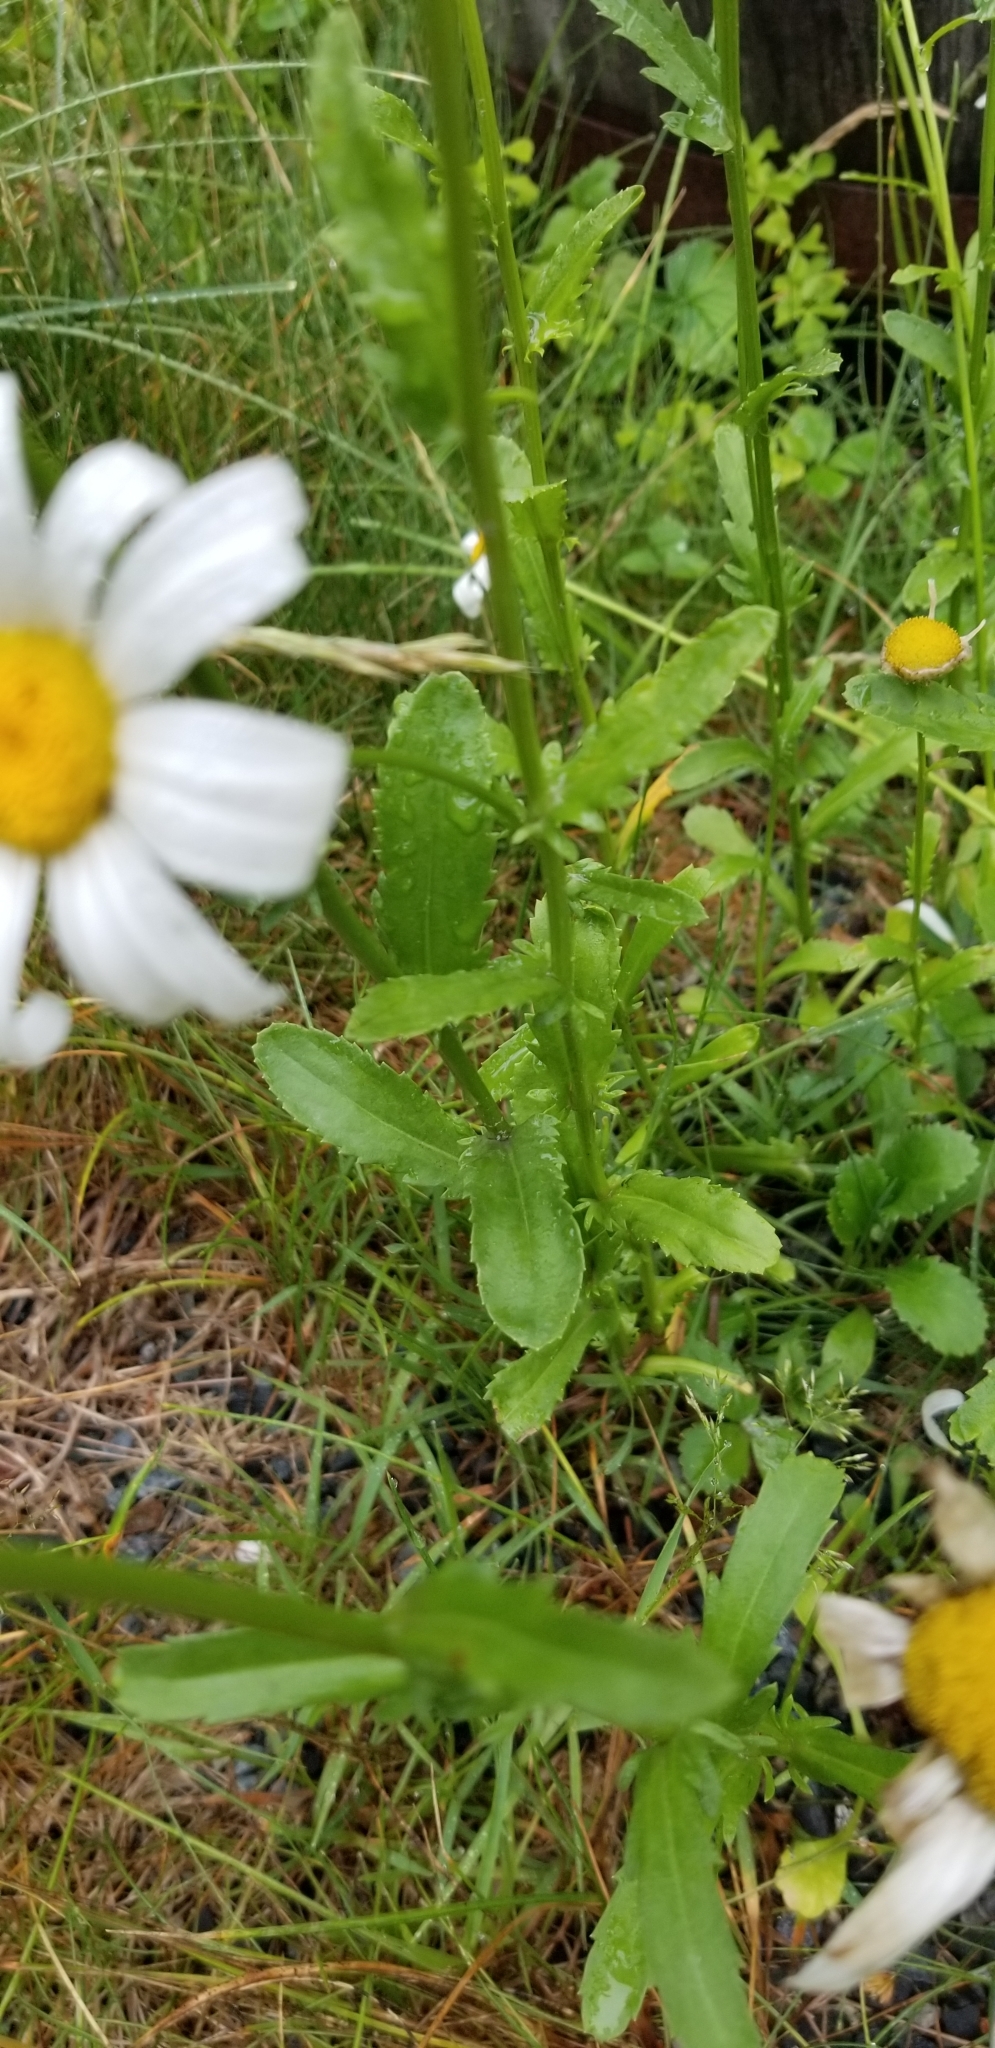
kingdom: Plantae
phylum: Tracheophyta
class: Magnoliopsida
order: Asterales
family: Asteraceae
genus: Leucanthemum
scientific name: Leucanthemum vulgare
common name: Oxeye daisy
